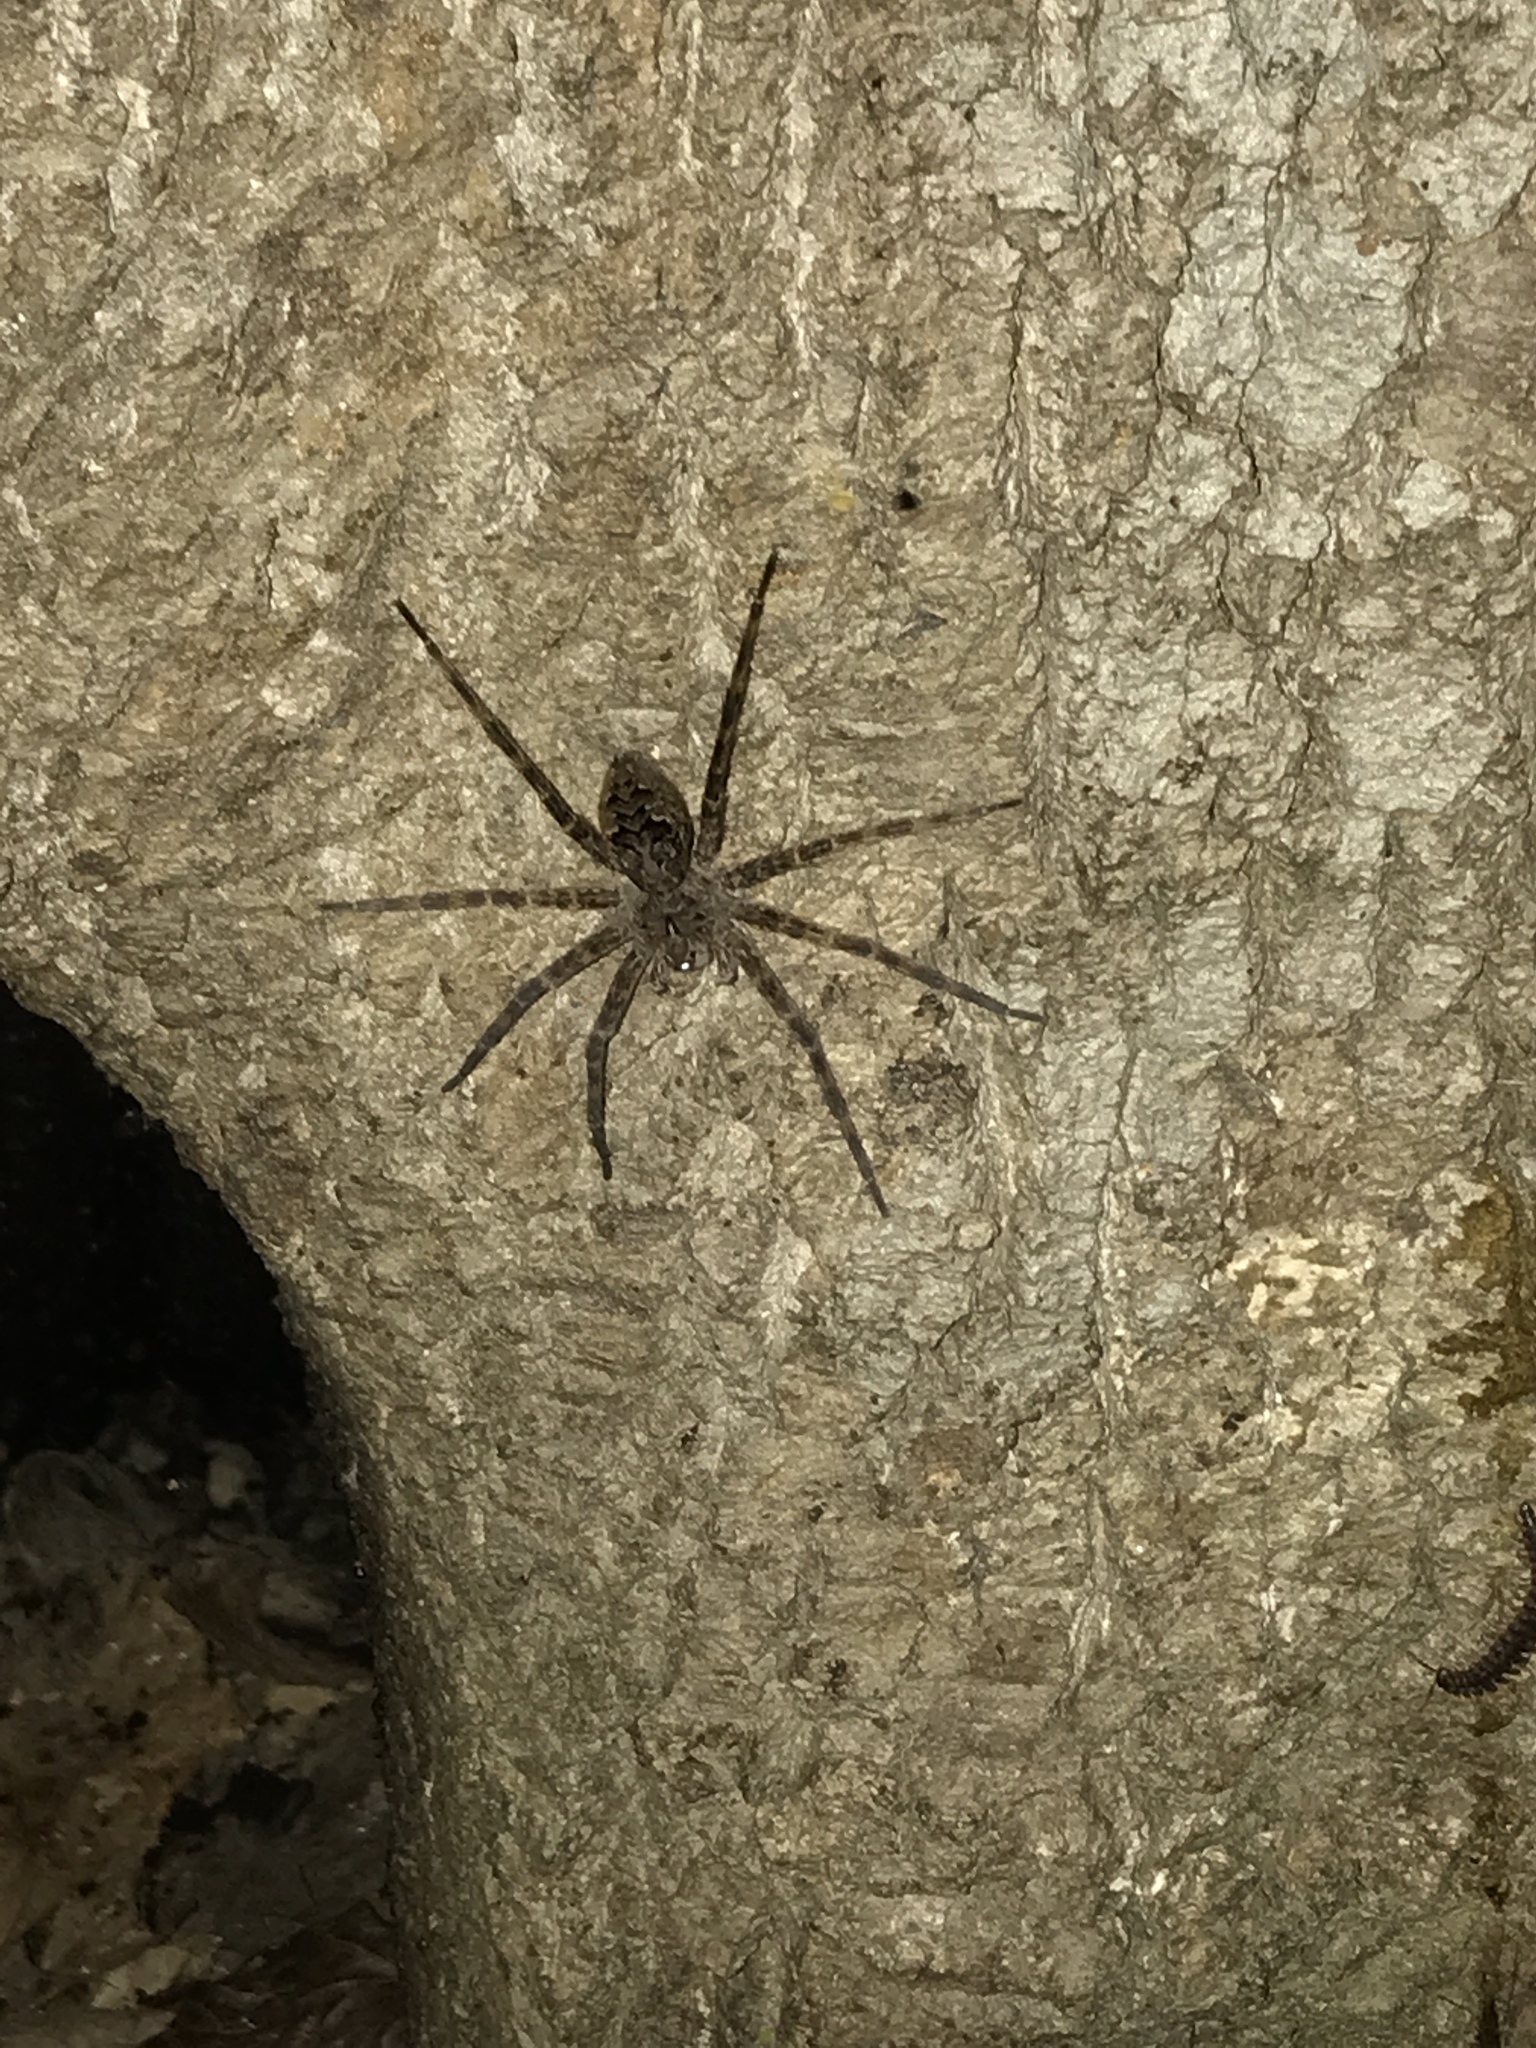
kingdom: Animalia
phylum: Arthropoda
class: Arachnida
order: Araneae
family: Pisauridae
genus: Dolomedes
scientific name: Dolomedes tenebrosus
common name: Dark fishing spider
